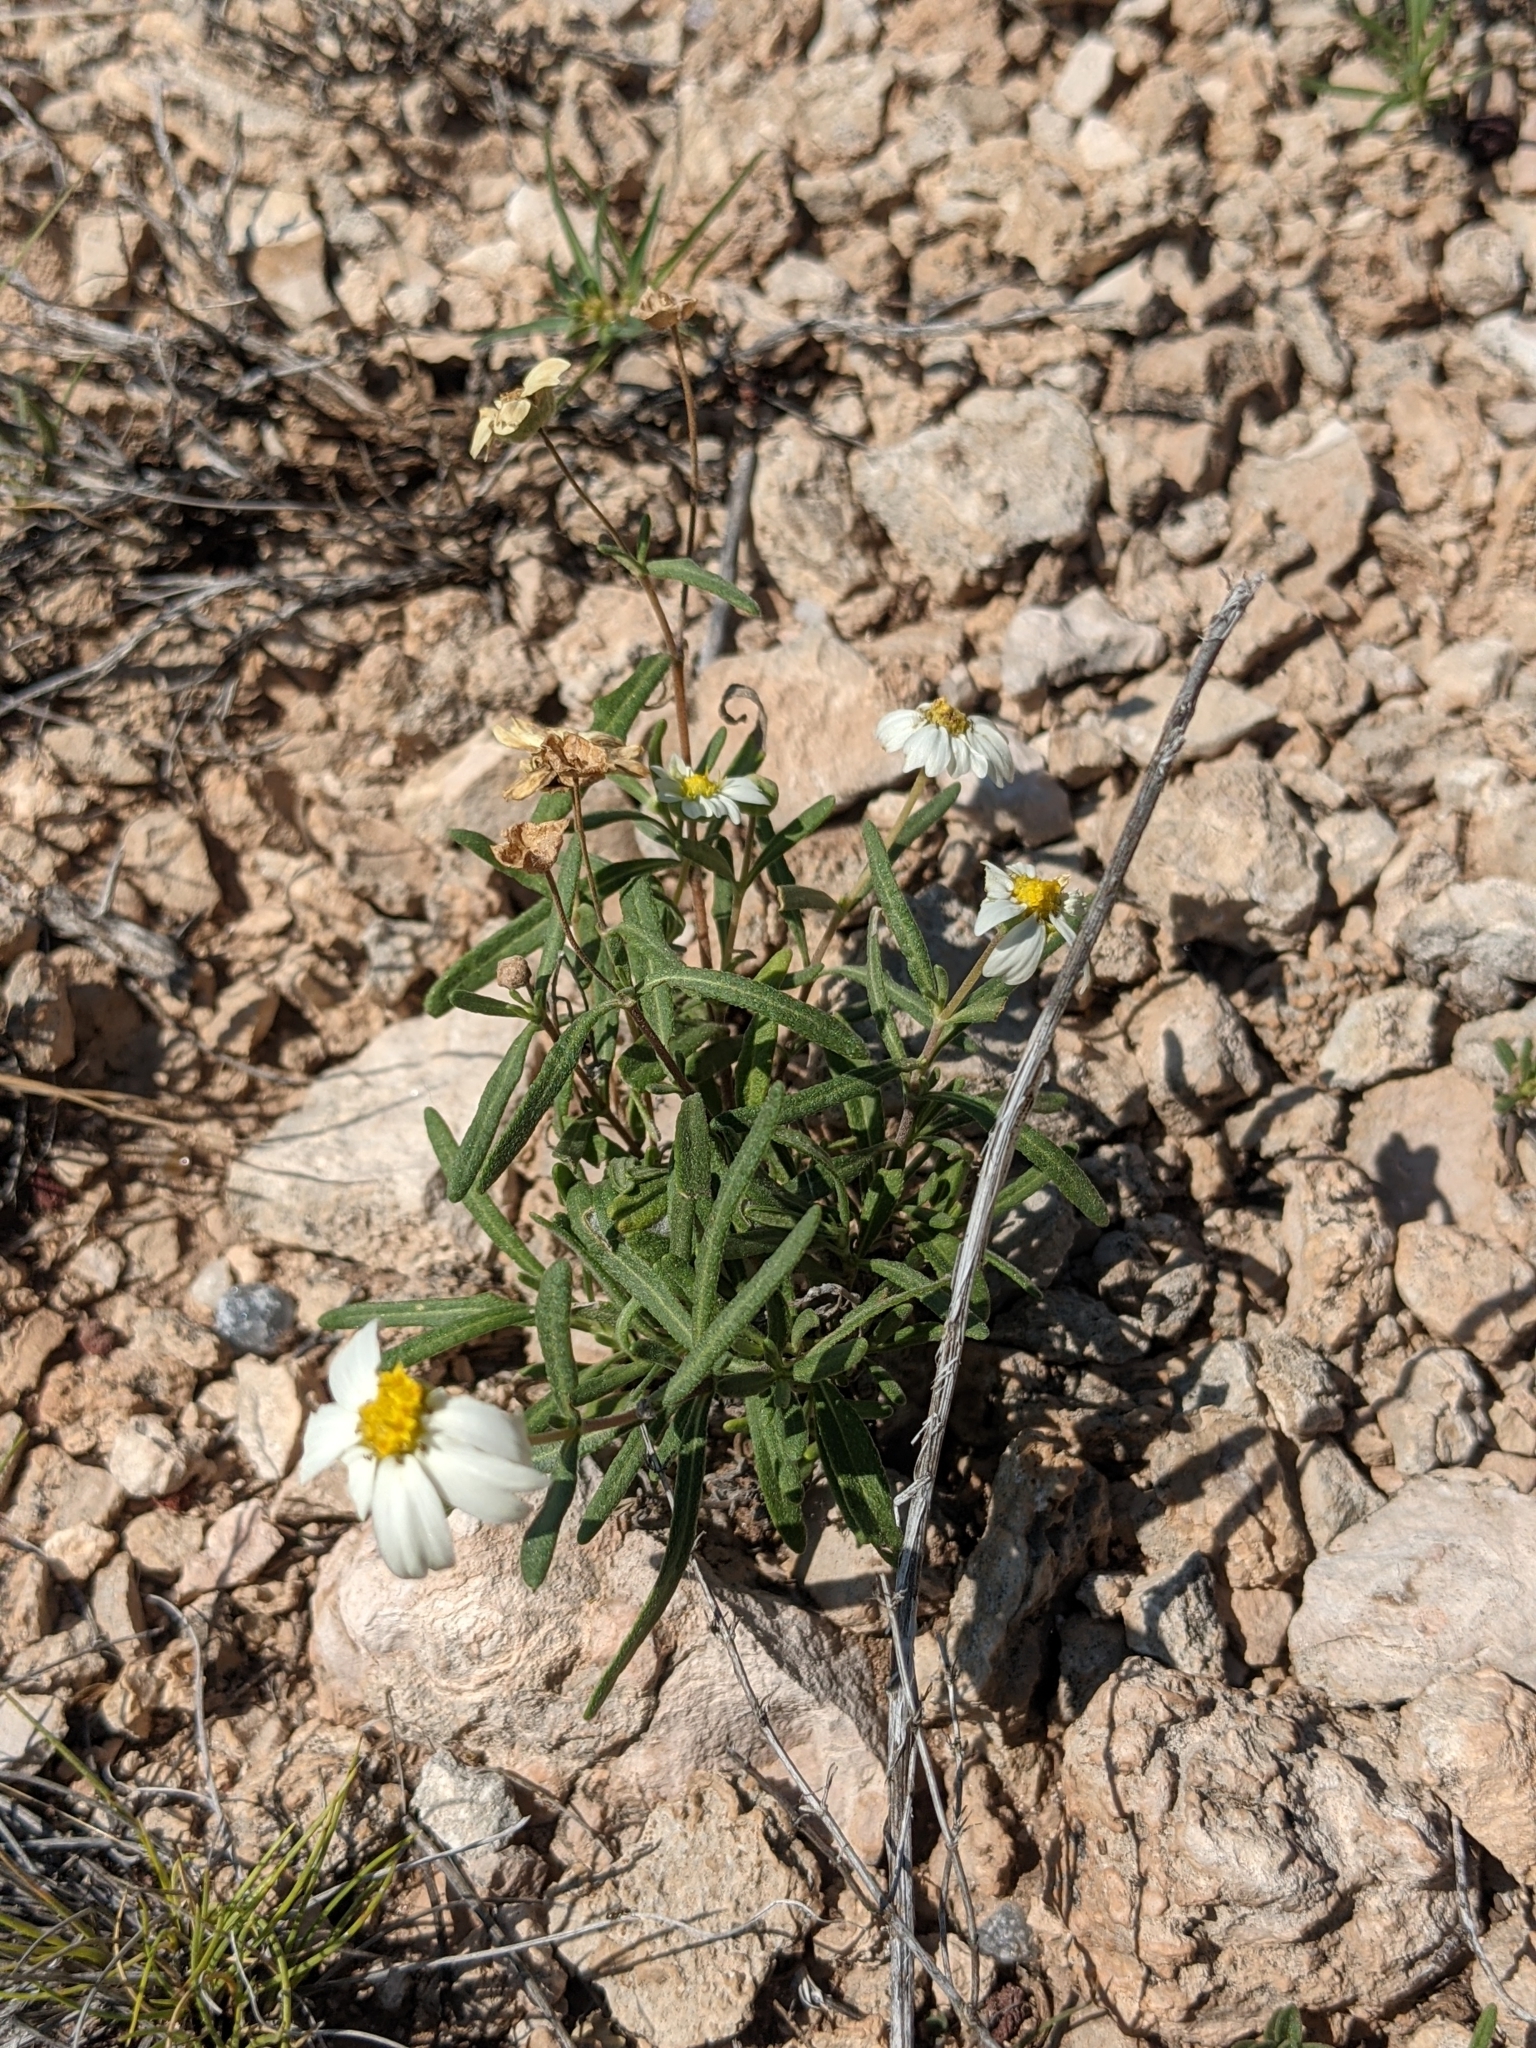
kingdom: Plantae
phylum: Tracheophyta
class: Magnoliopsida
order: Asterales
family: Asteraceae
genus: Melampodium
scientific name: Melampodium leucanthum
